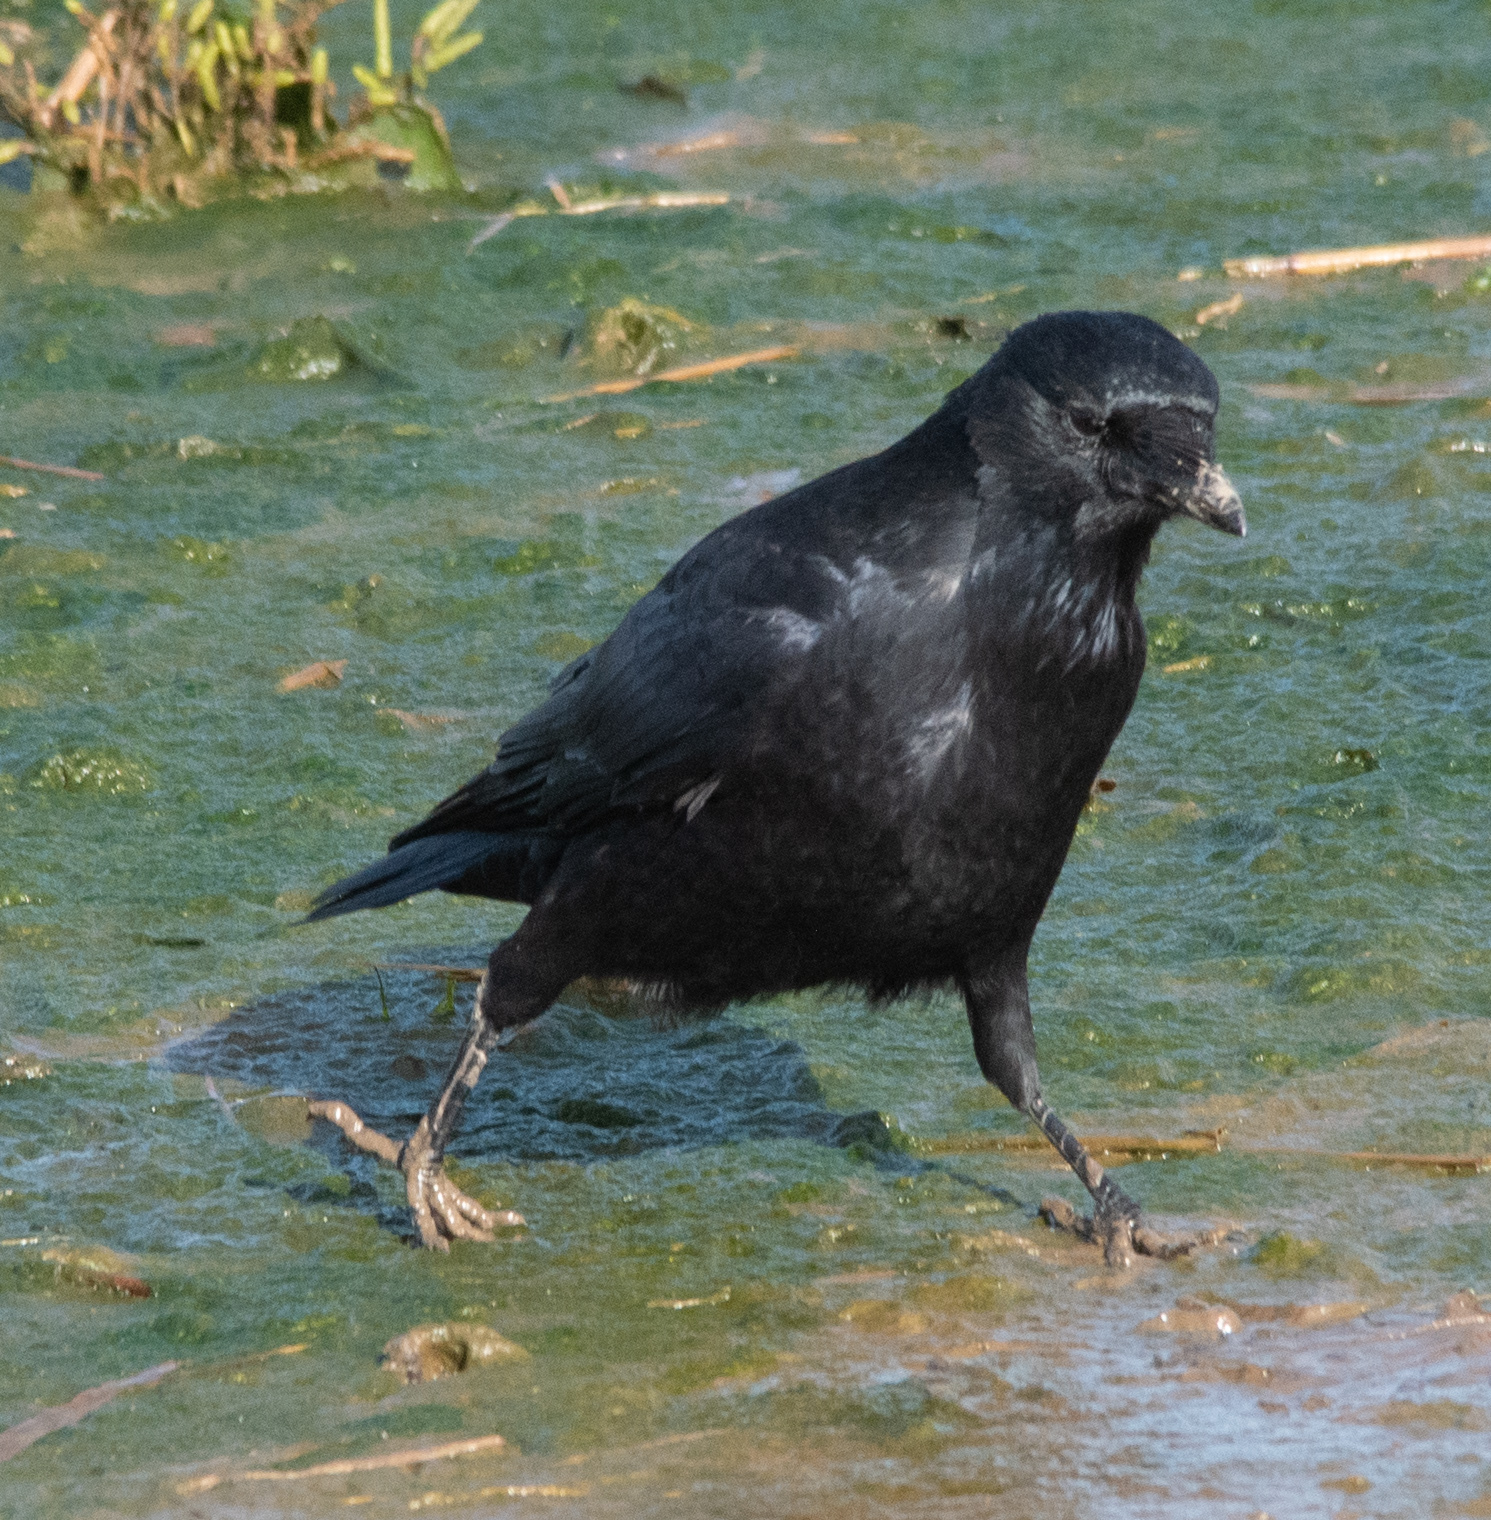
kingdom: Animalia
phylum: Chordata
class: Aves
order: Passeriformes
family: Corvidae
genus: Corvus
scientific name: Corvus corone
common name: Carrion crow
